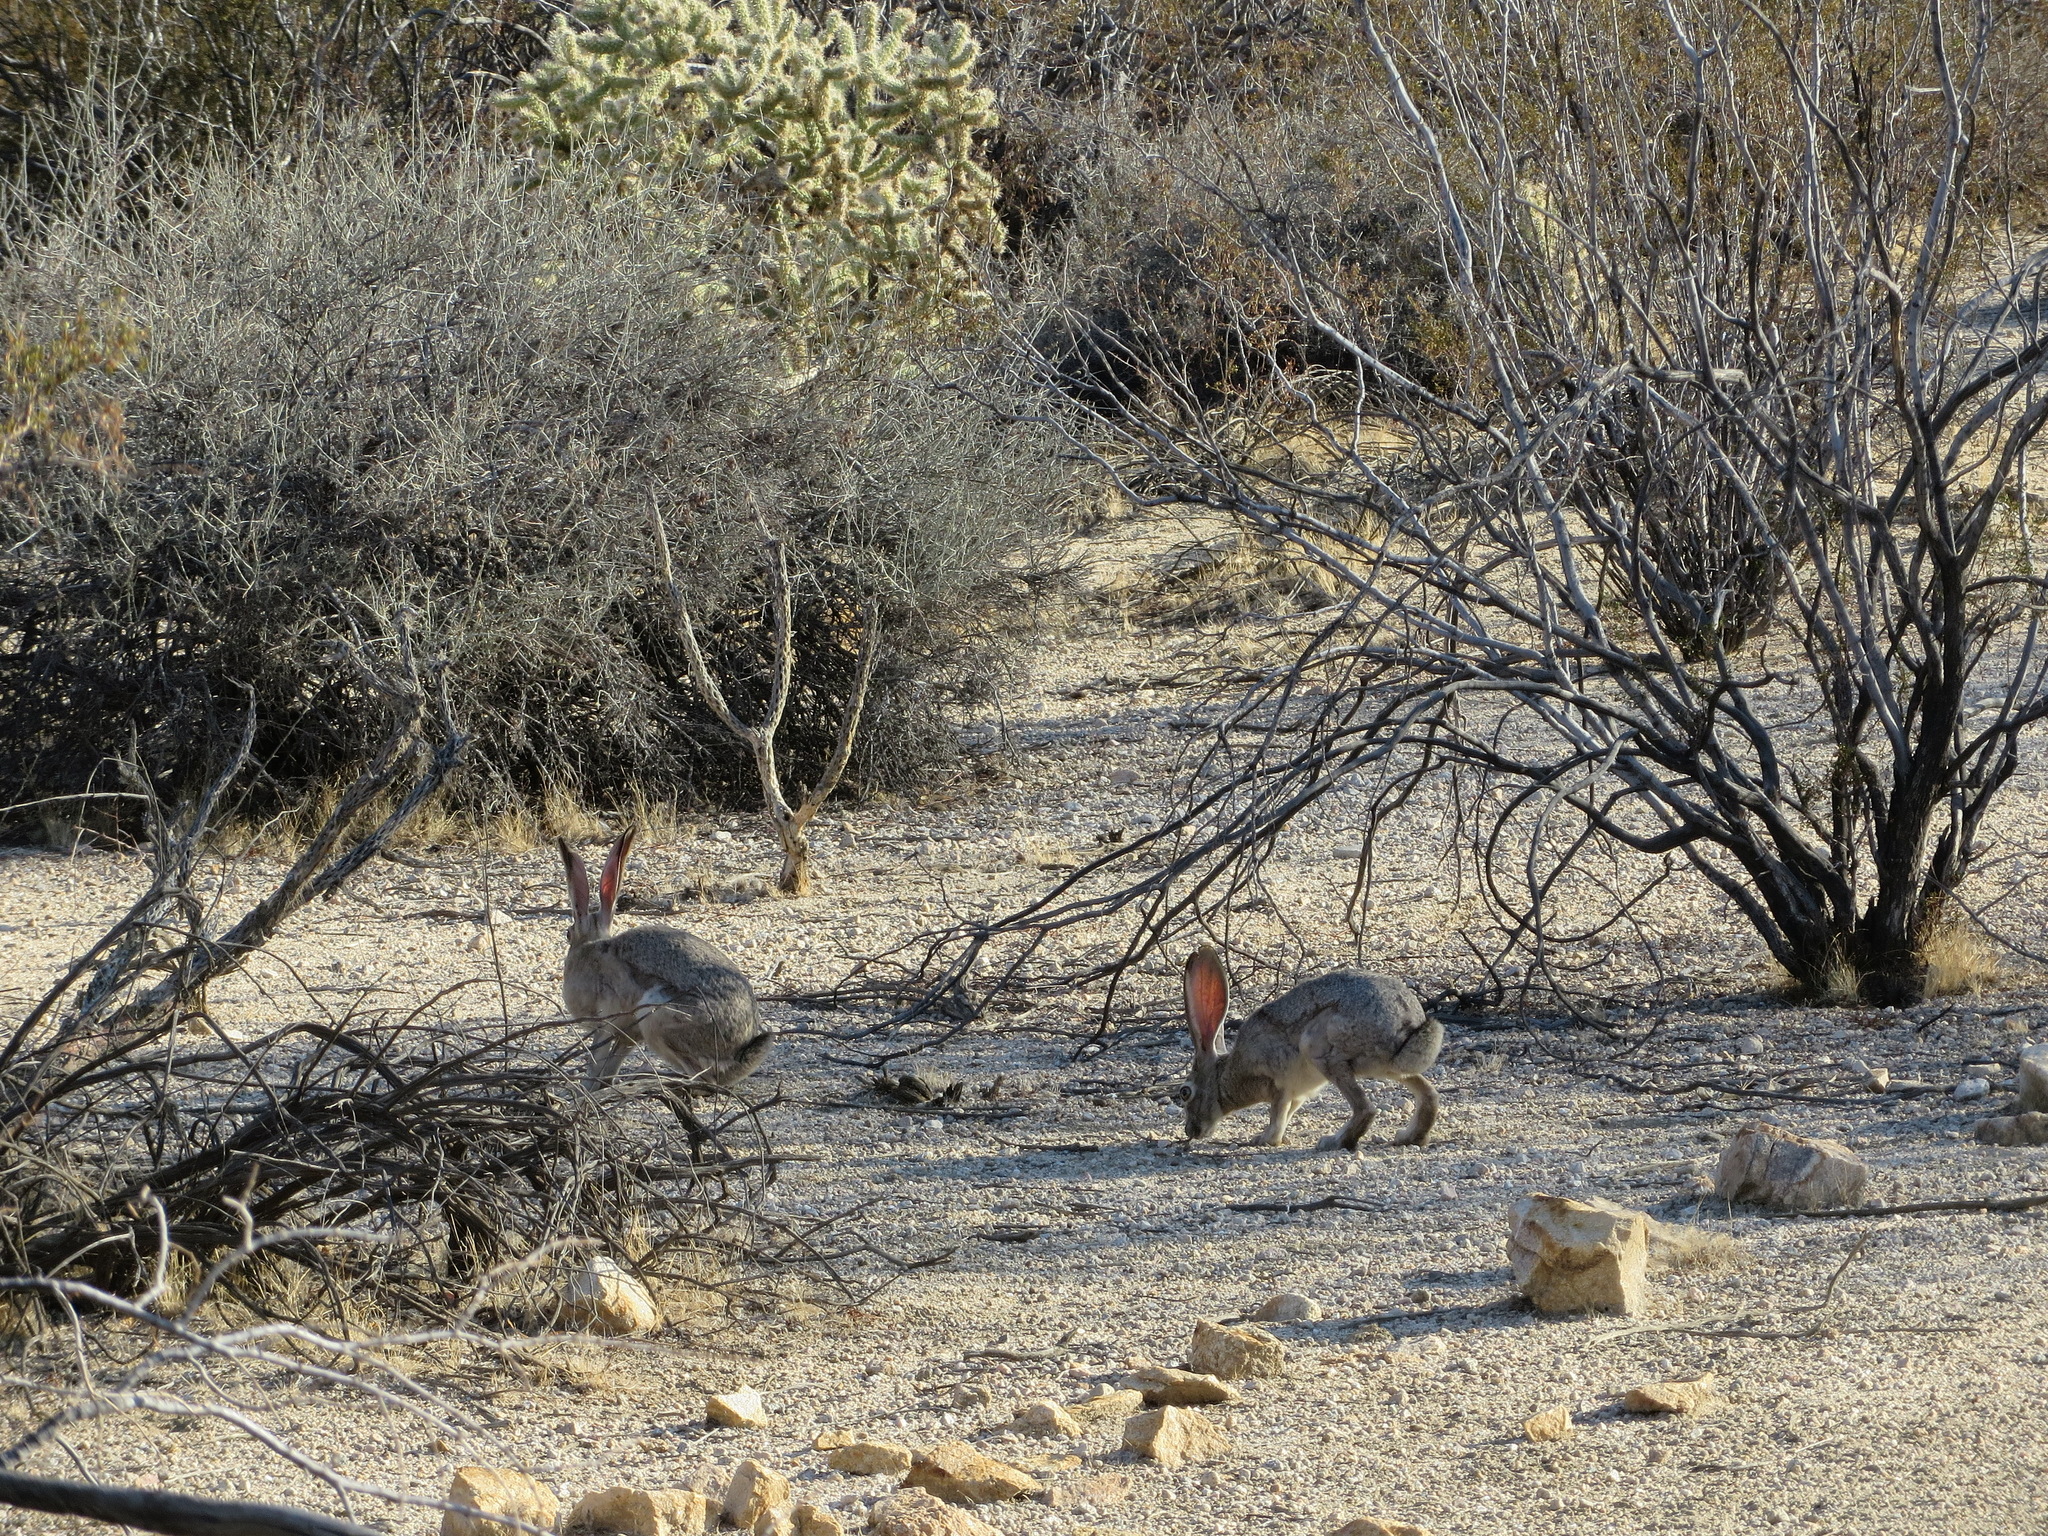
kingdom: Animalia
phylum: Chordata
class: Mammalia
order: Lagomorpha
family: Leporidae
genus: Lepus
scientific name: Lepus californicus
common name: Black-tailed jackrabbit
